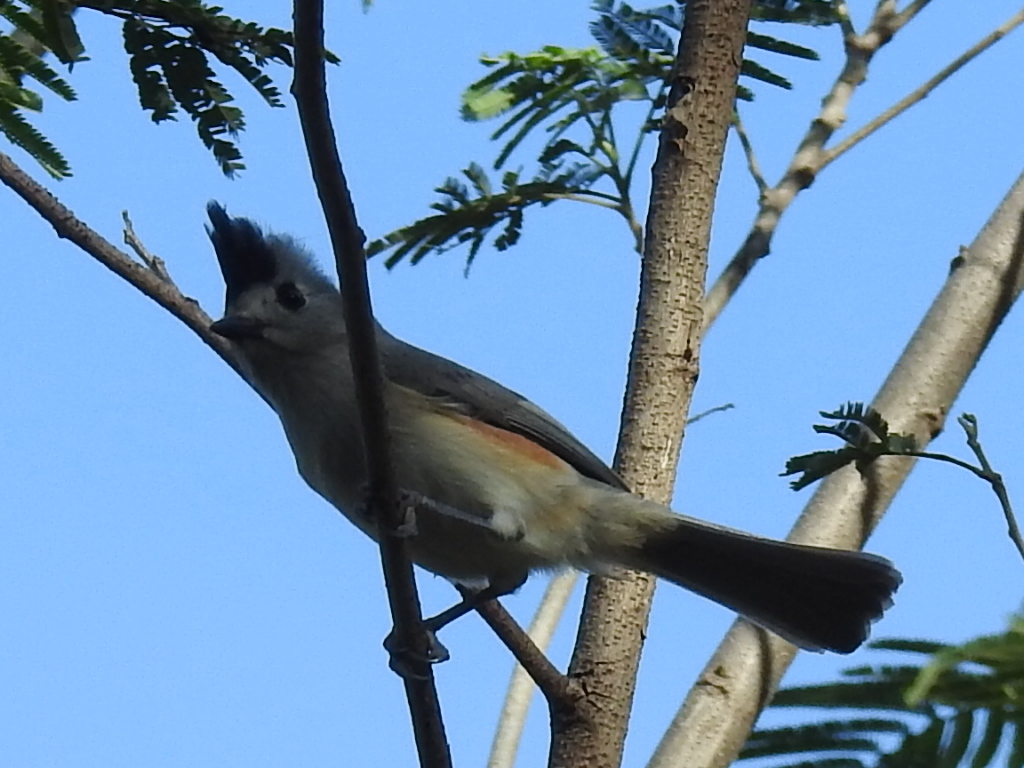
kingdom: Animalia
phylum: Chordata
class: Aves
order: Passeriformes
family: Paridae
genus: Baeolophus
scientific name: Baeolophus atricristatus
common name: Black-crested titmouse
